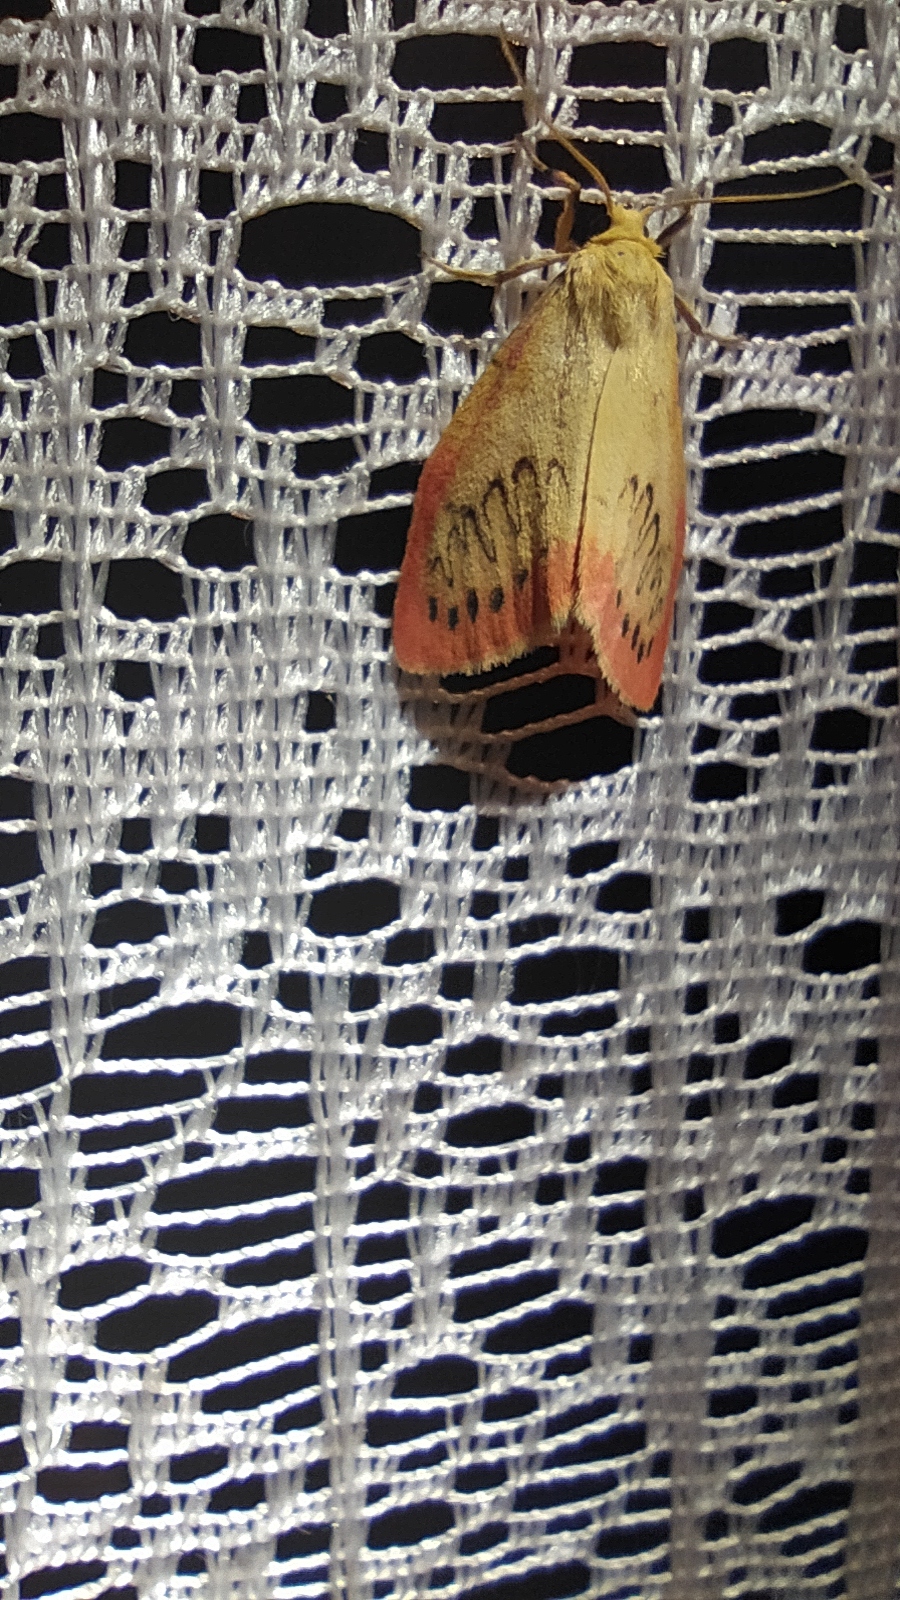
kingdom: Animalia
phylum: Arthropoda
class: Insecta
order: Lepidoptera
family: Erebidae
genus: Miltochrista
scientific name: Miltochrista miniata
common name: Rosy footman
